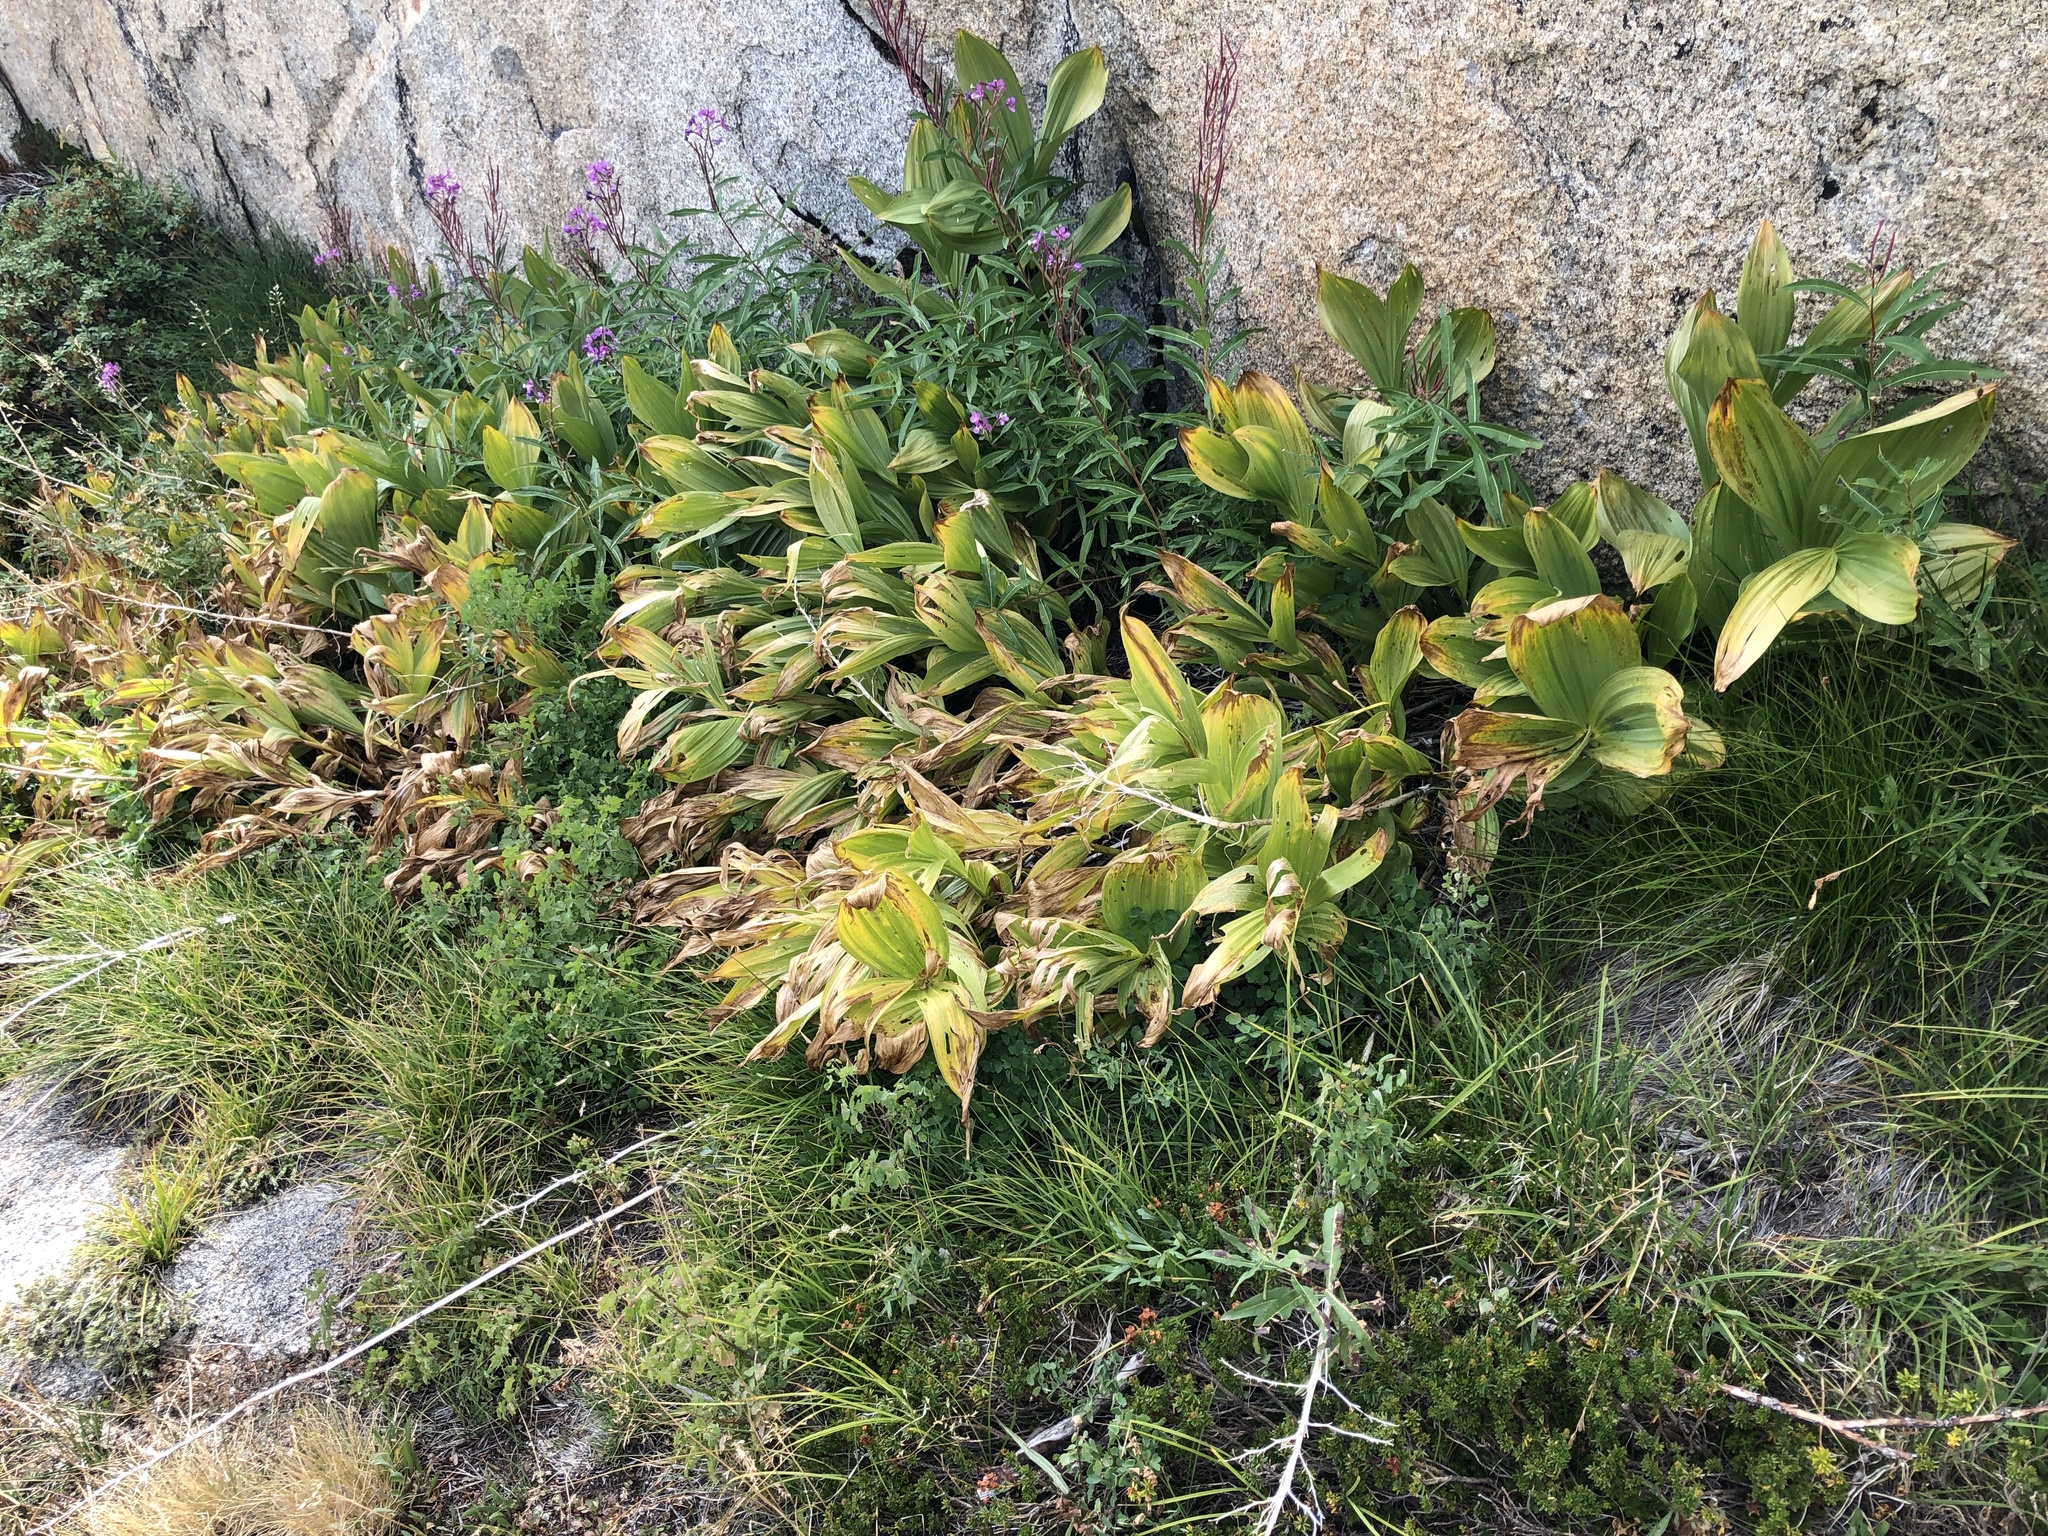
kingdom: Plantae
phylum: Tracheophyta
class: Liliopsida
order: Liliales
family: Melanthiaceae
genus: Veratrum
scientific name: Veratrum californicum
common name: California veratrum
